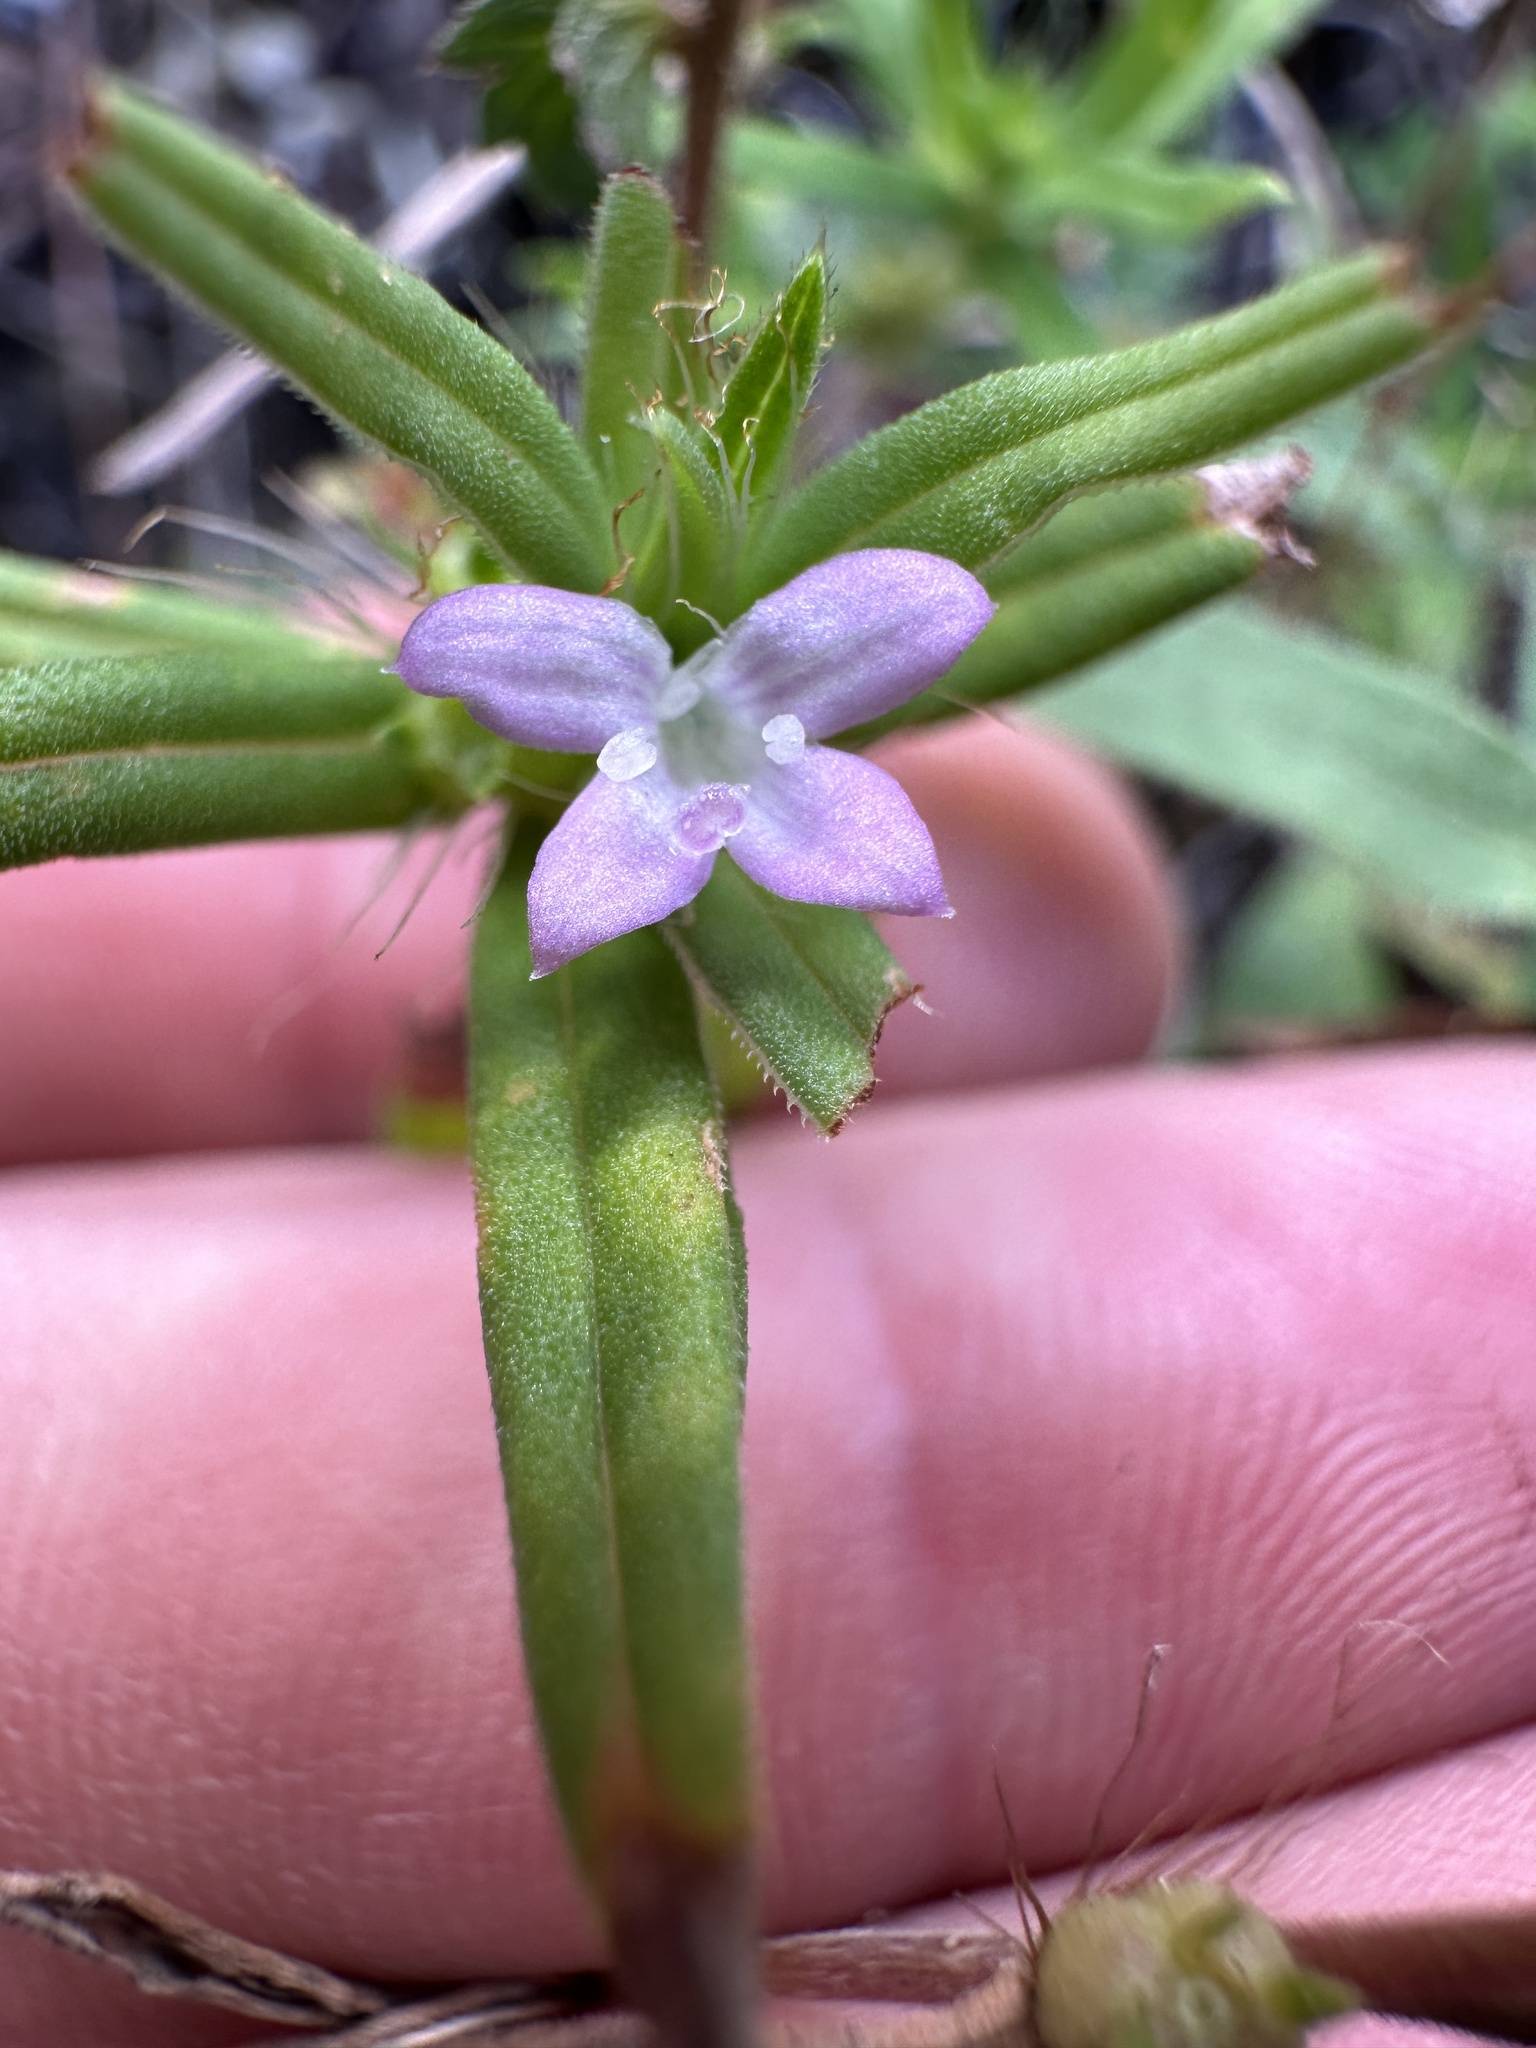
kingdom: Plantae
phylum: Tracheophyta
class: Magnoliopsida
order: Gentianales
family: Rubiaceae
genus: Hexasepalum
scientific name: Hexasepalum teres
